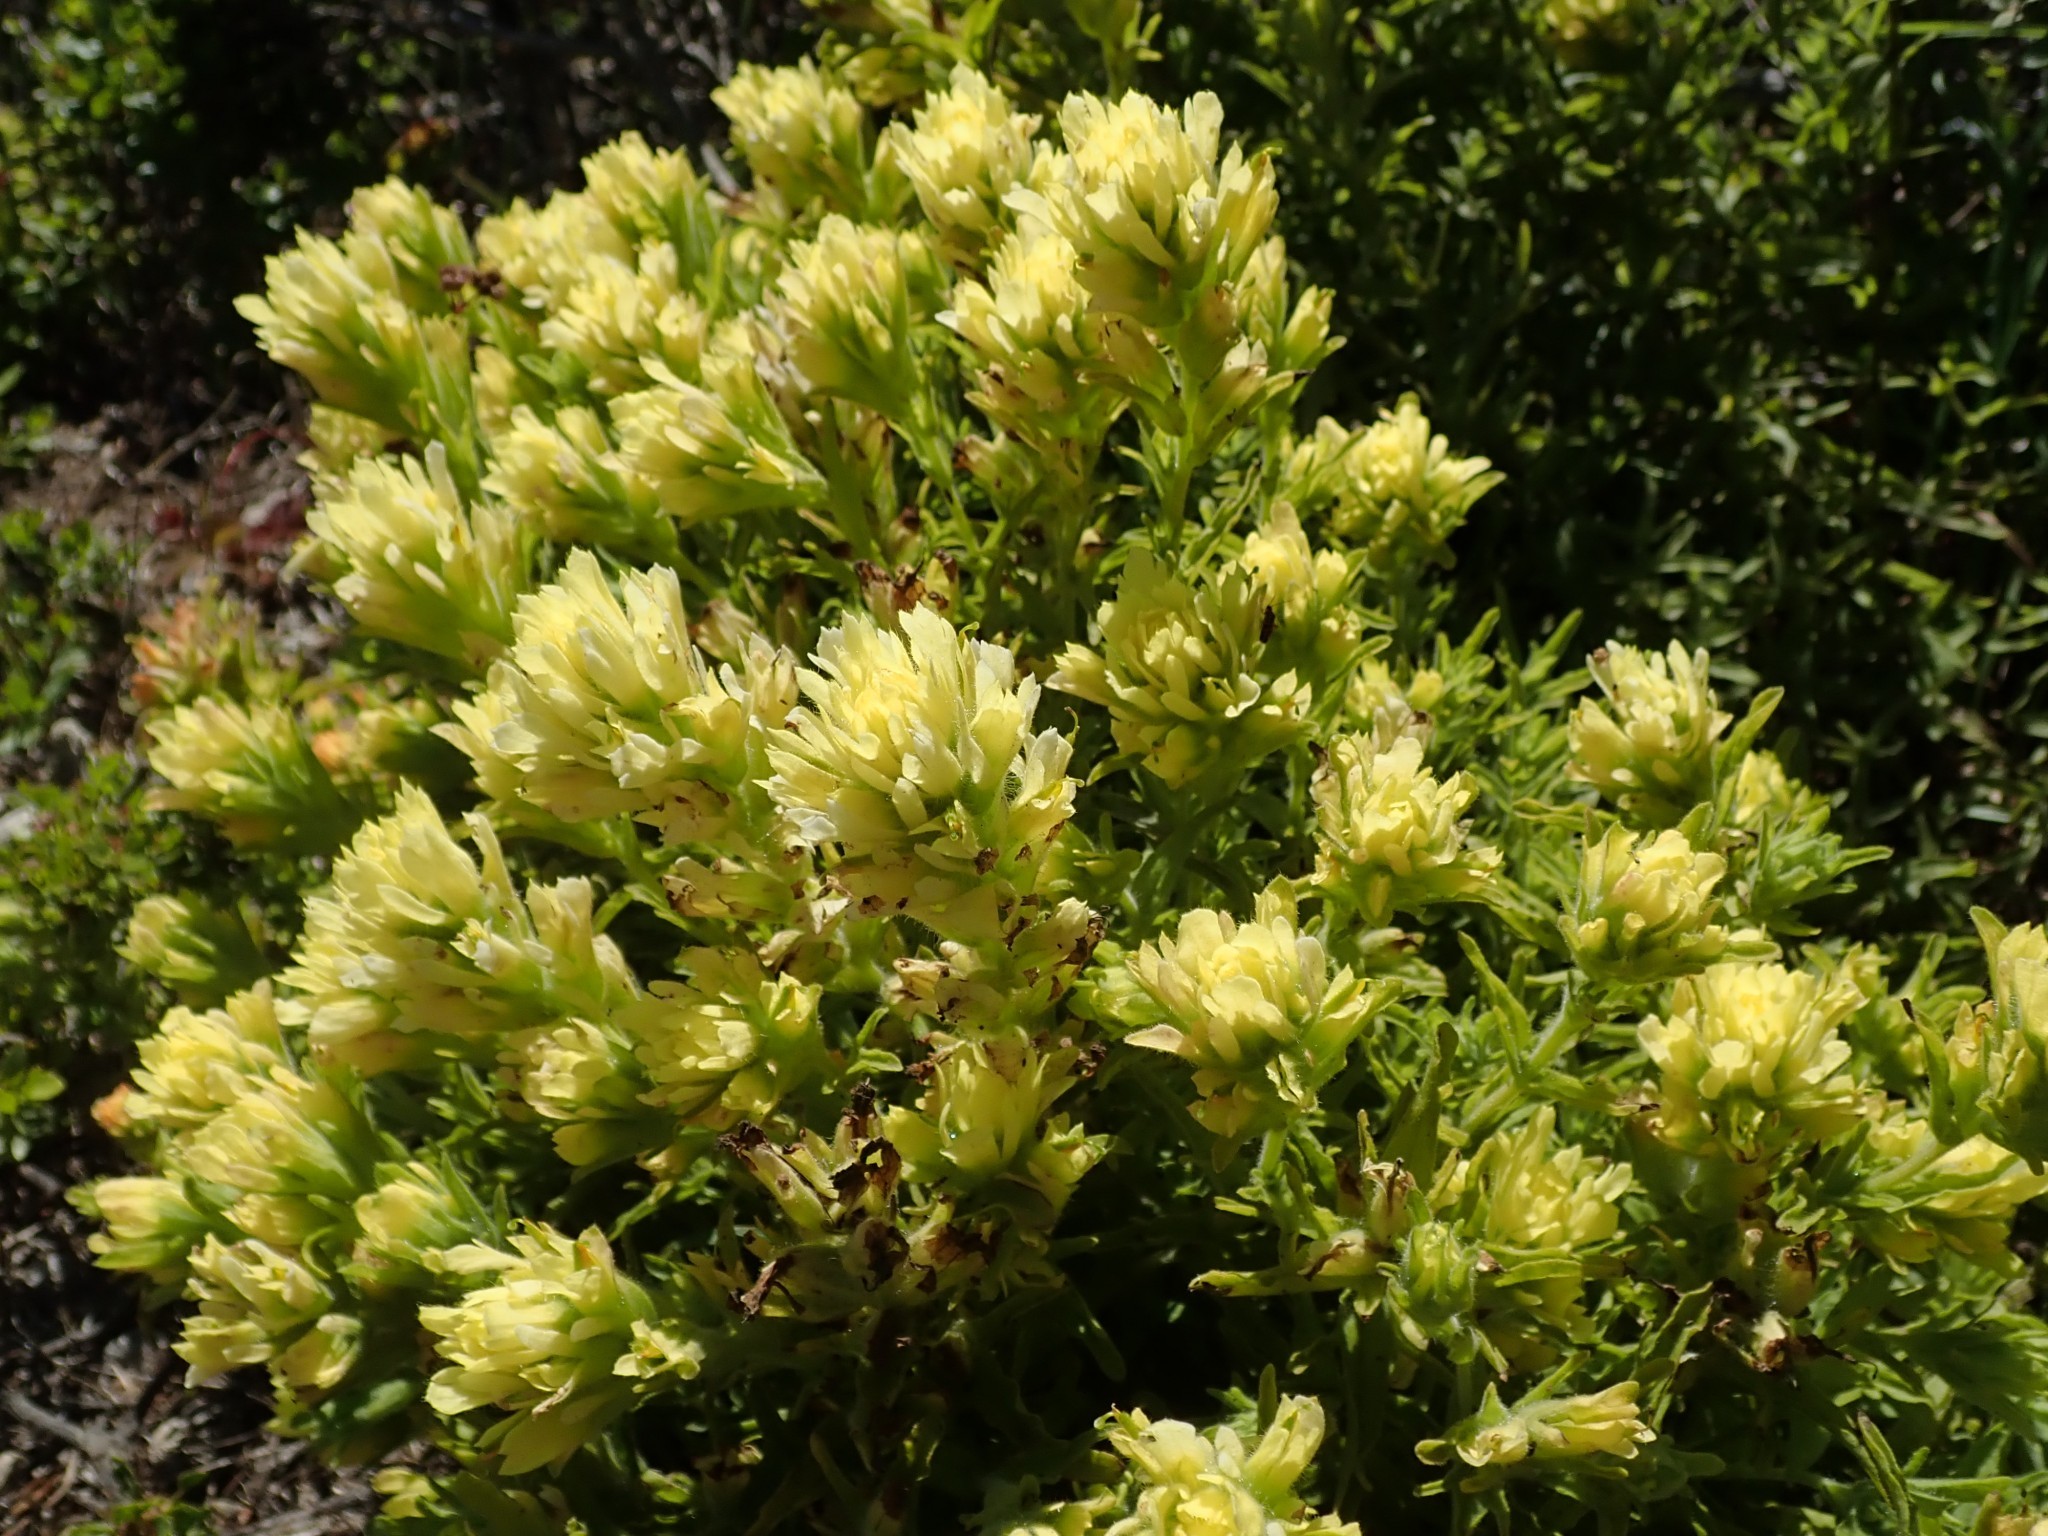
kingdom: Plantae
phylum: Tracheophyta
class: Magnoliopsida
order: Lamiales
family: Orobanchaceae
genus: Castilleja
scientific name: Castilleja wightii
